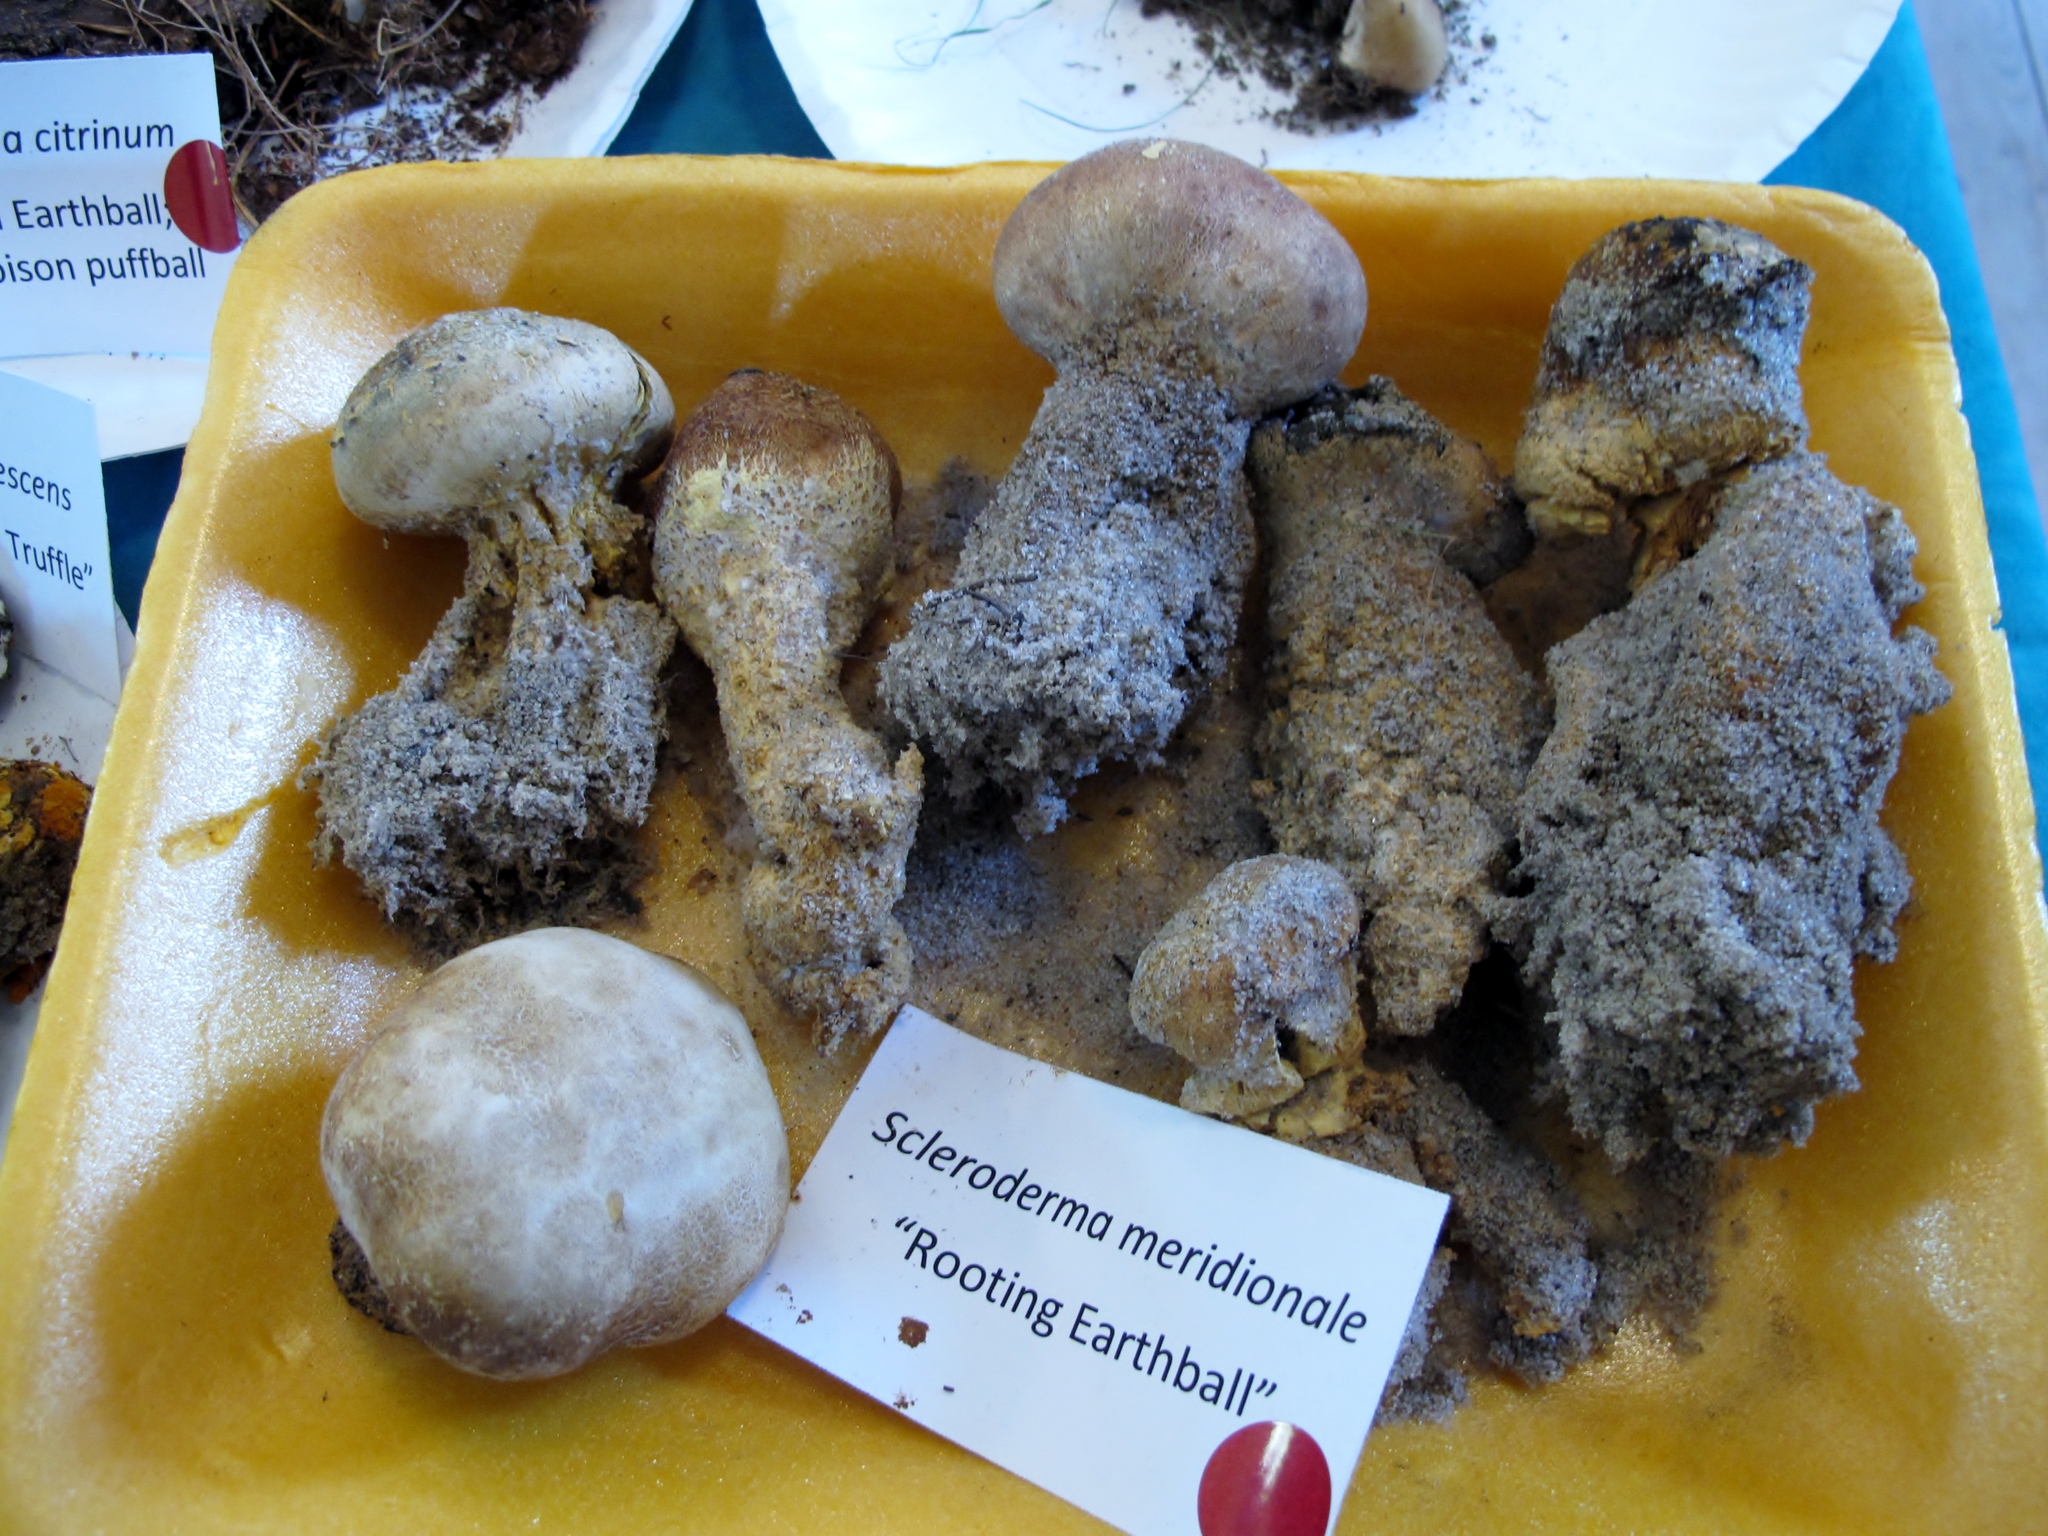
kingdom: Fungi
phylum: Basidiomycota
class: Agaricomycetes
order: Boletales
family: Sclerodermataceae
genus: Scleroderma
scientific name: Scleroderma meridionale
